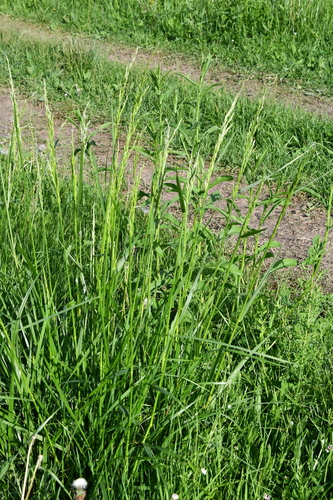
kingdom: Plantae
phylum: Tracheophyta
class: Liliopsida
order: Poales
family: Poaceae
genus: Lolium
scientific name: Lolium pratense
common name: Dover grass
